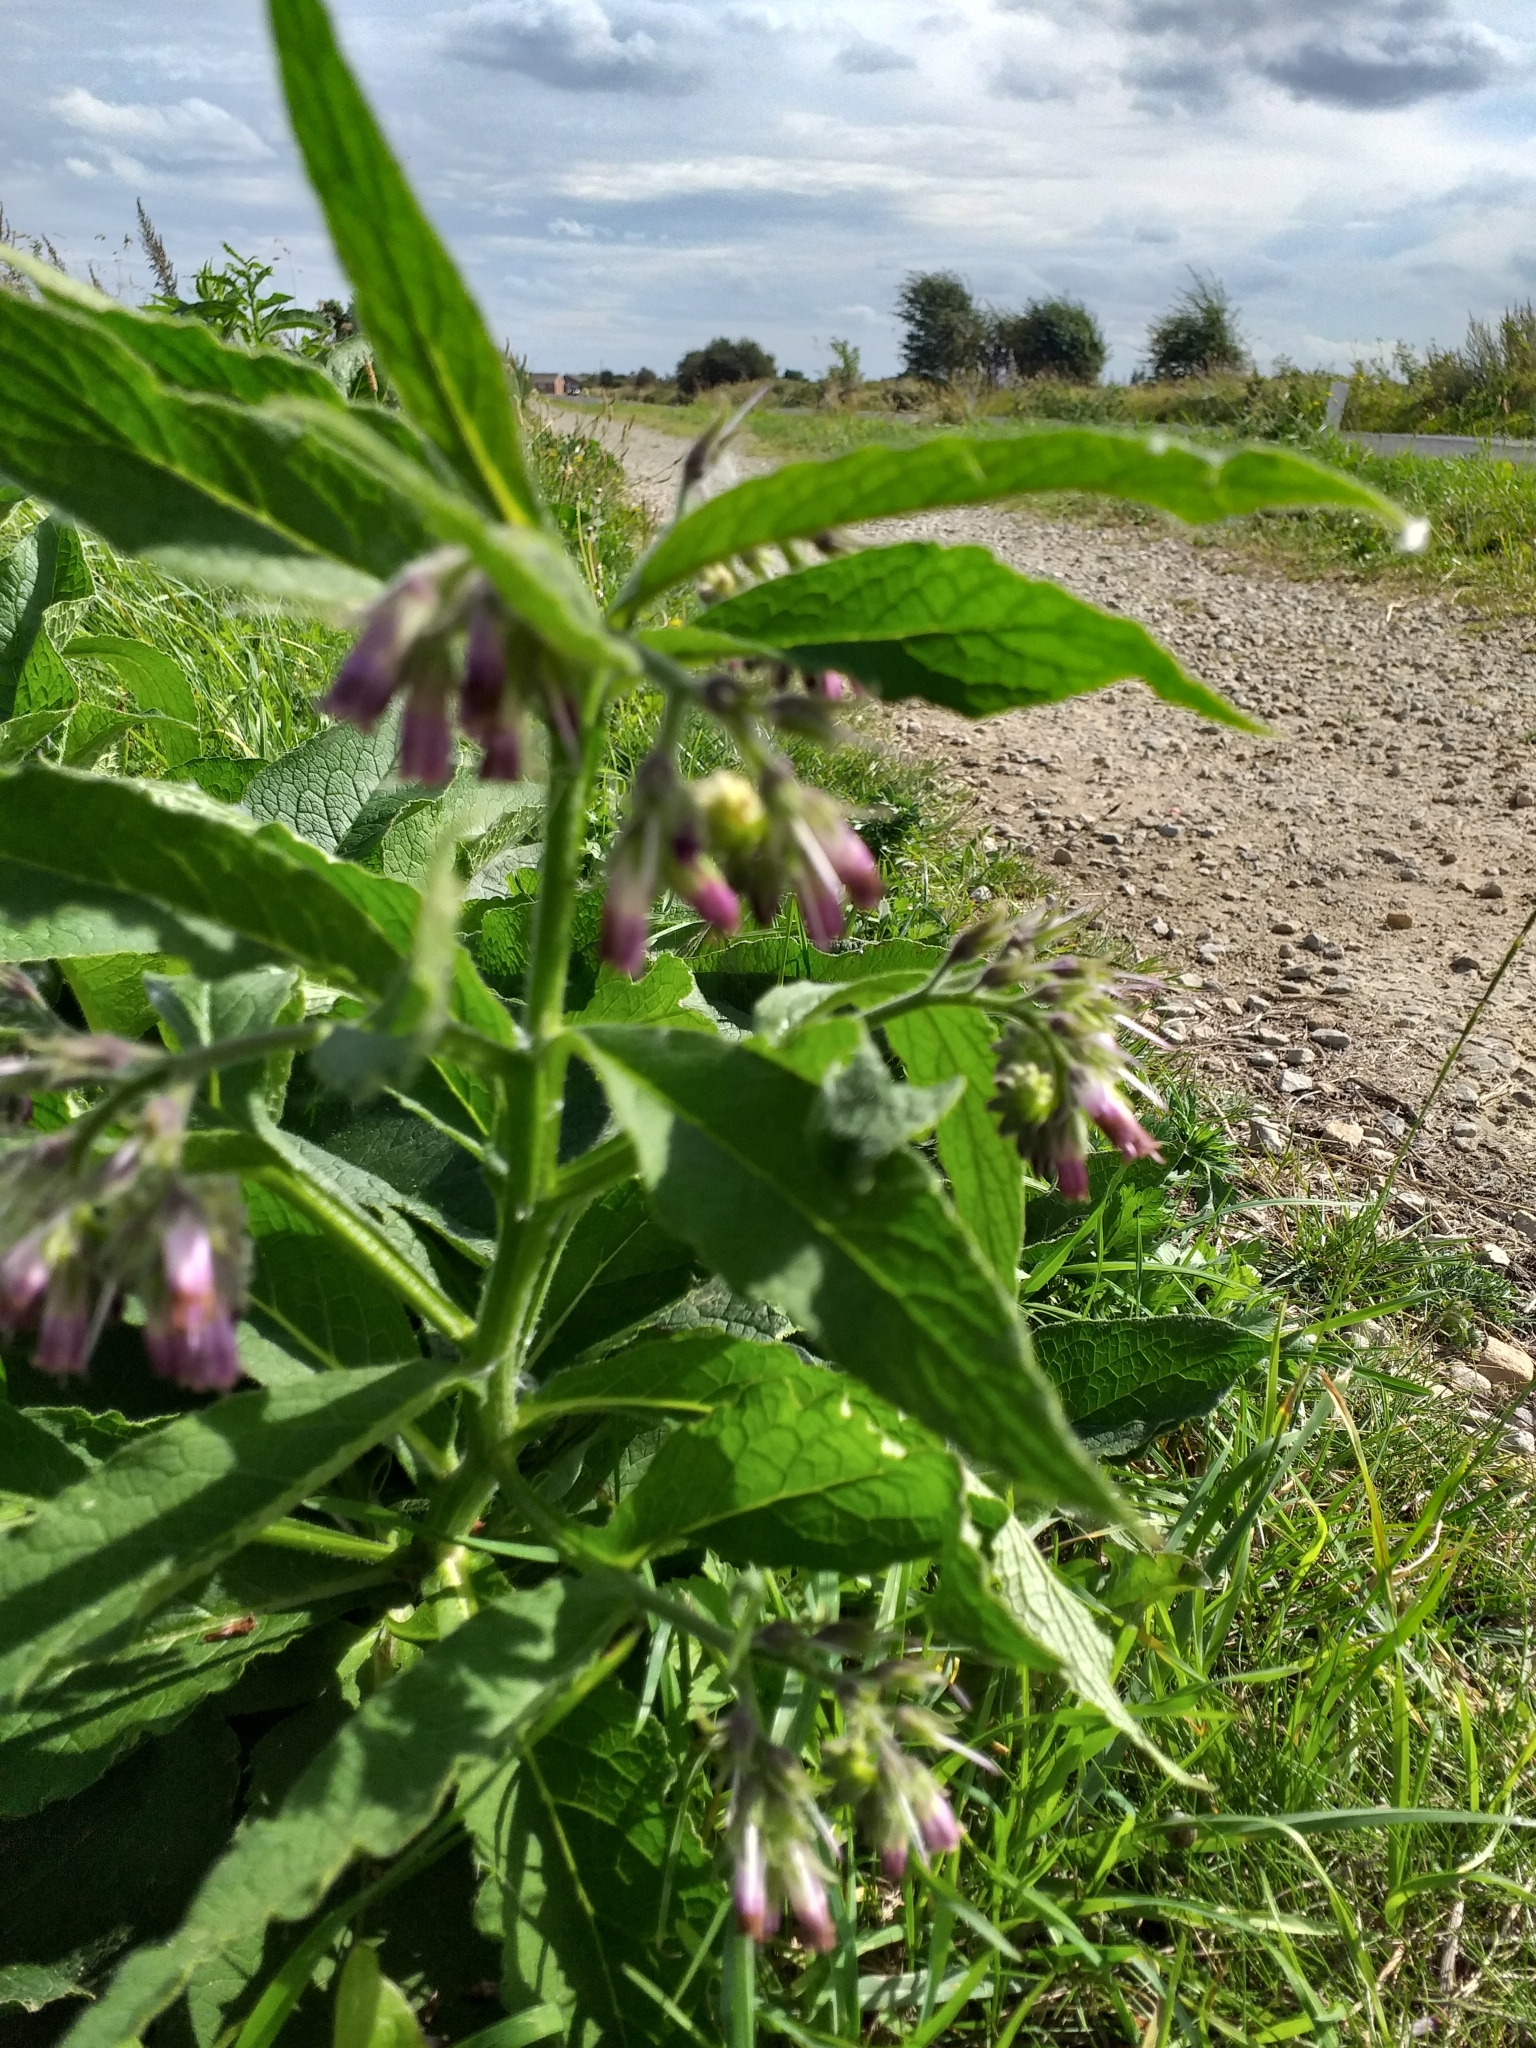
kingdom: Plantae
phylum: Tracheophyta
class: Magnoliopsida
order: Boraginales
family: Boraginaceae
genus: Symphytum
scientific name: Symphytum officinale
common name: Common comfrey
